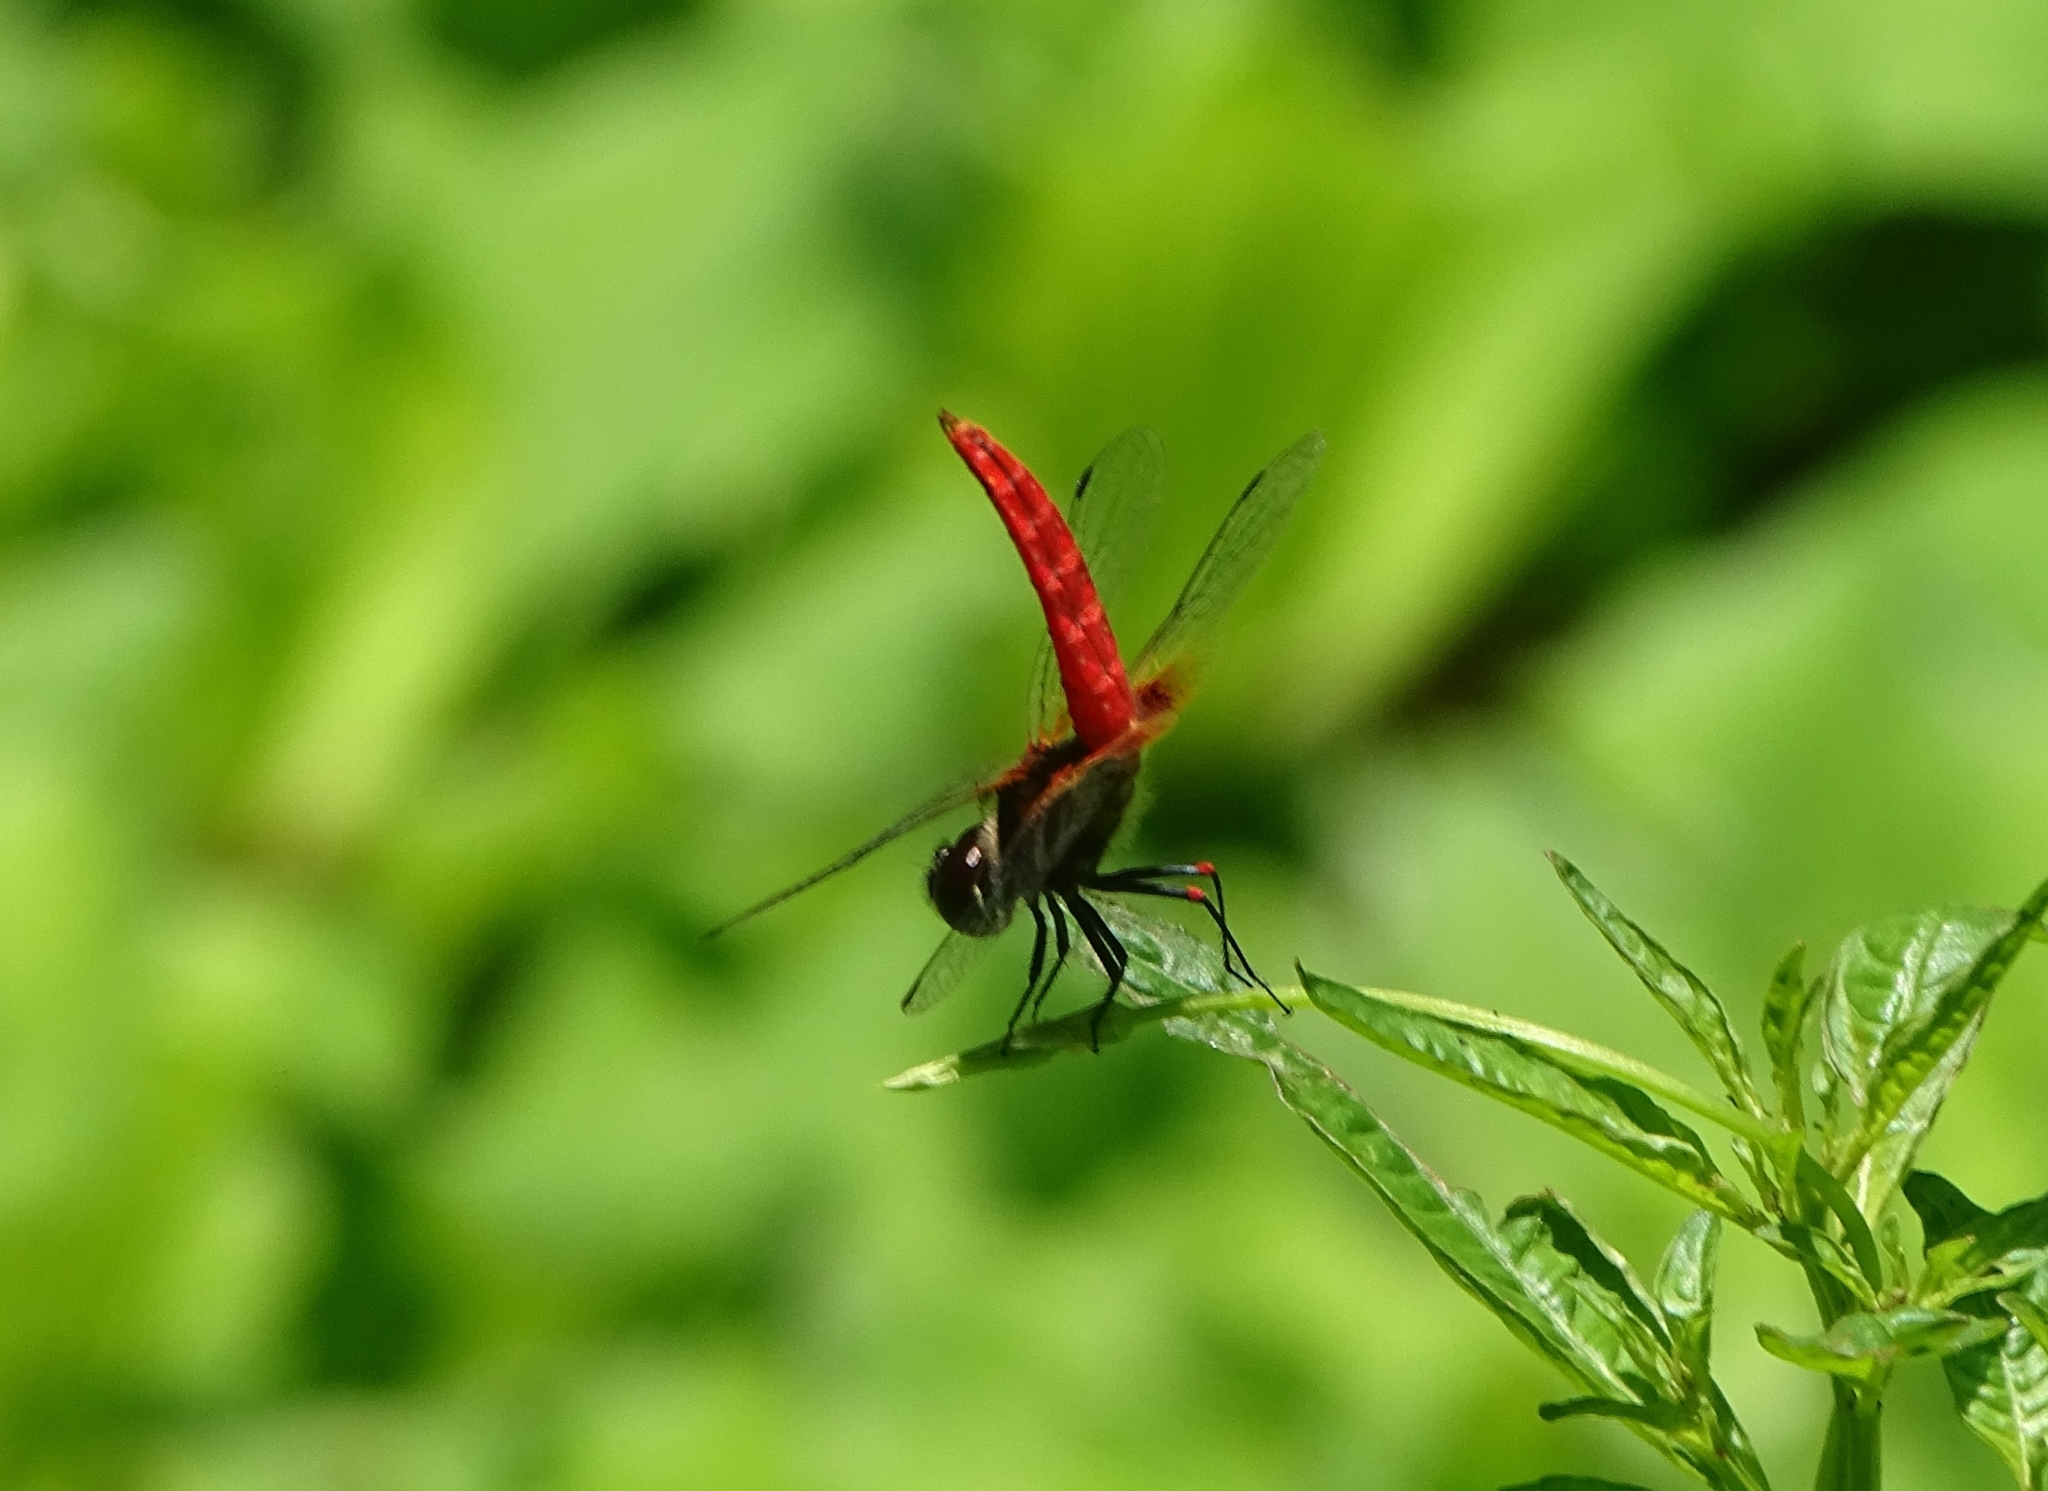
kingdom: Animalia
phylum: Arthropoda
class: Insecta
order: Odonata
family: Libellulidae
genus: Aethriamanta
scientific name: Aethriamanta brevipennis
